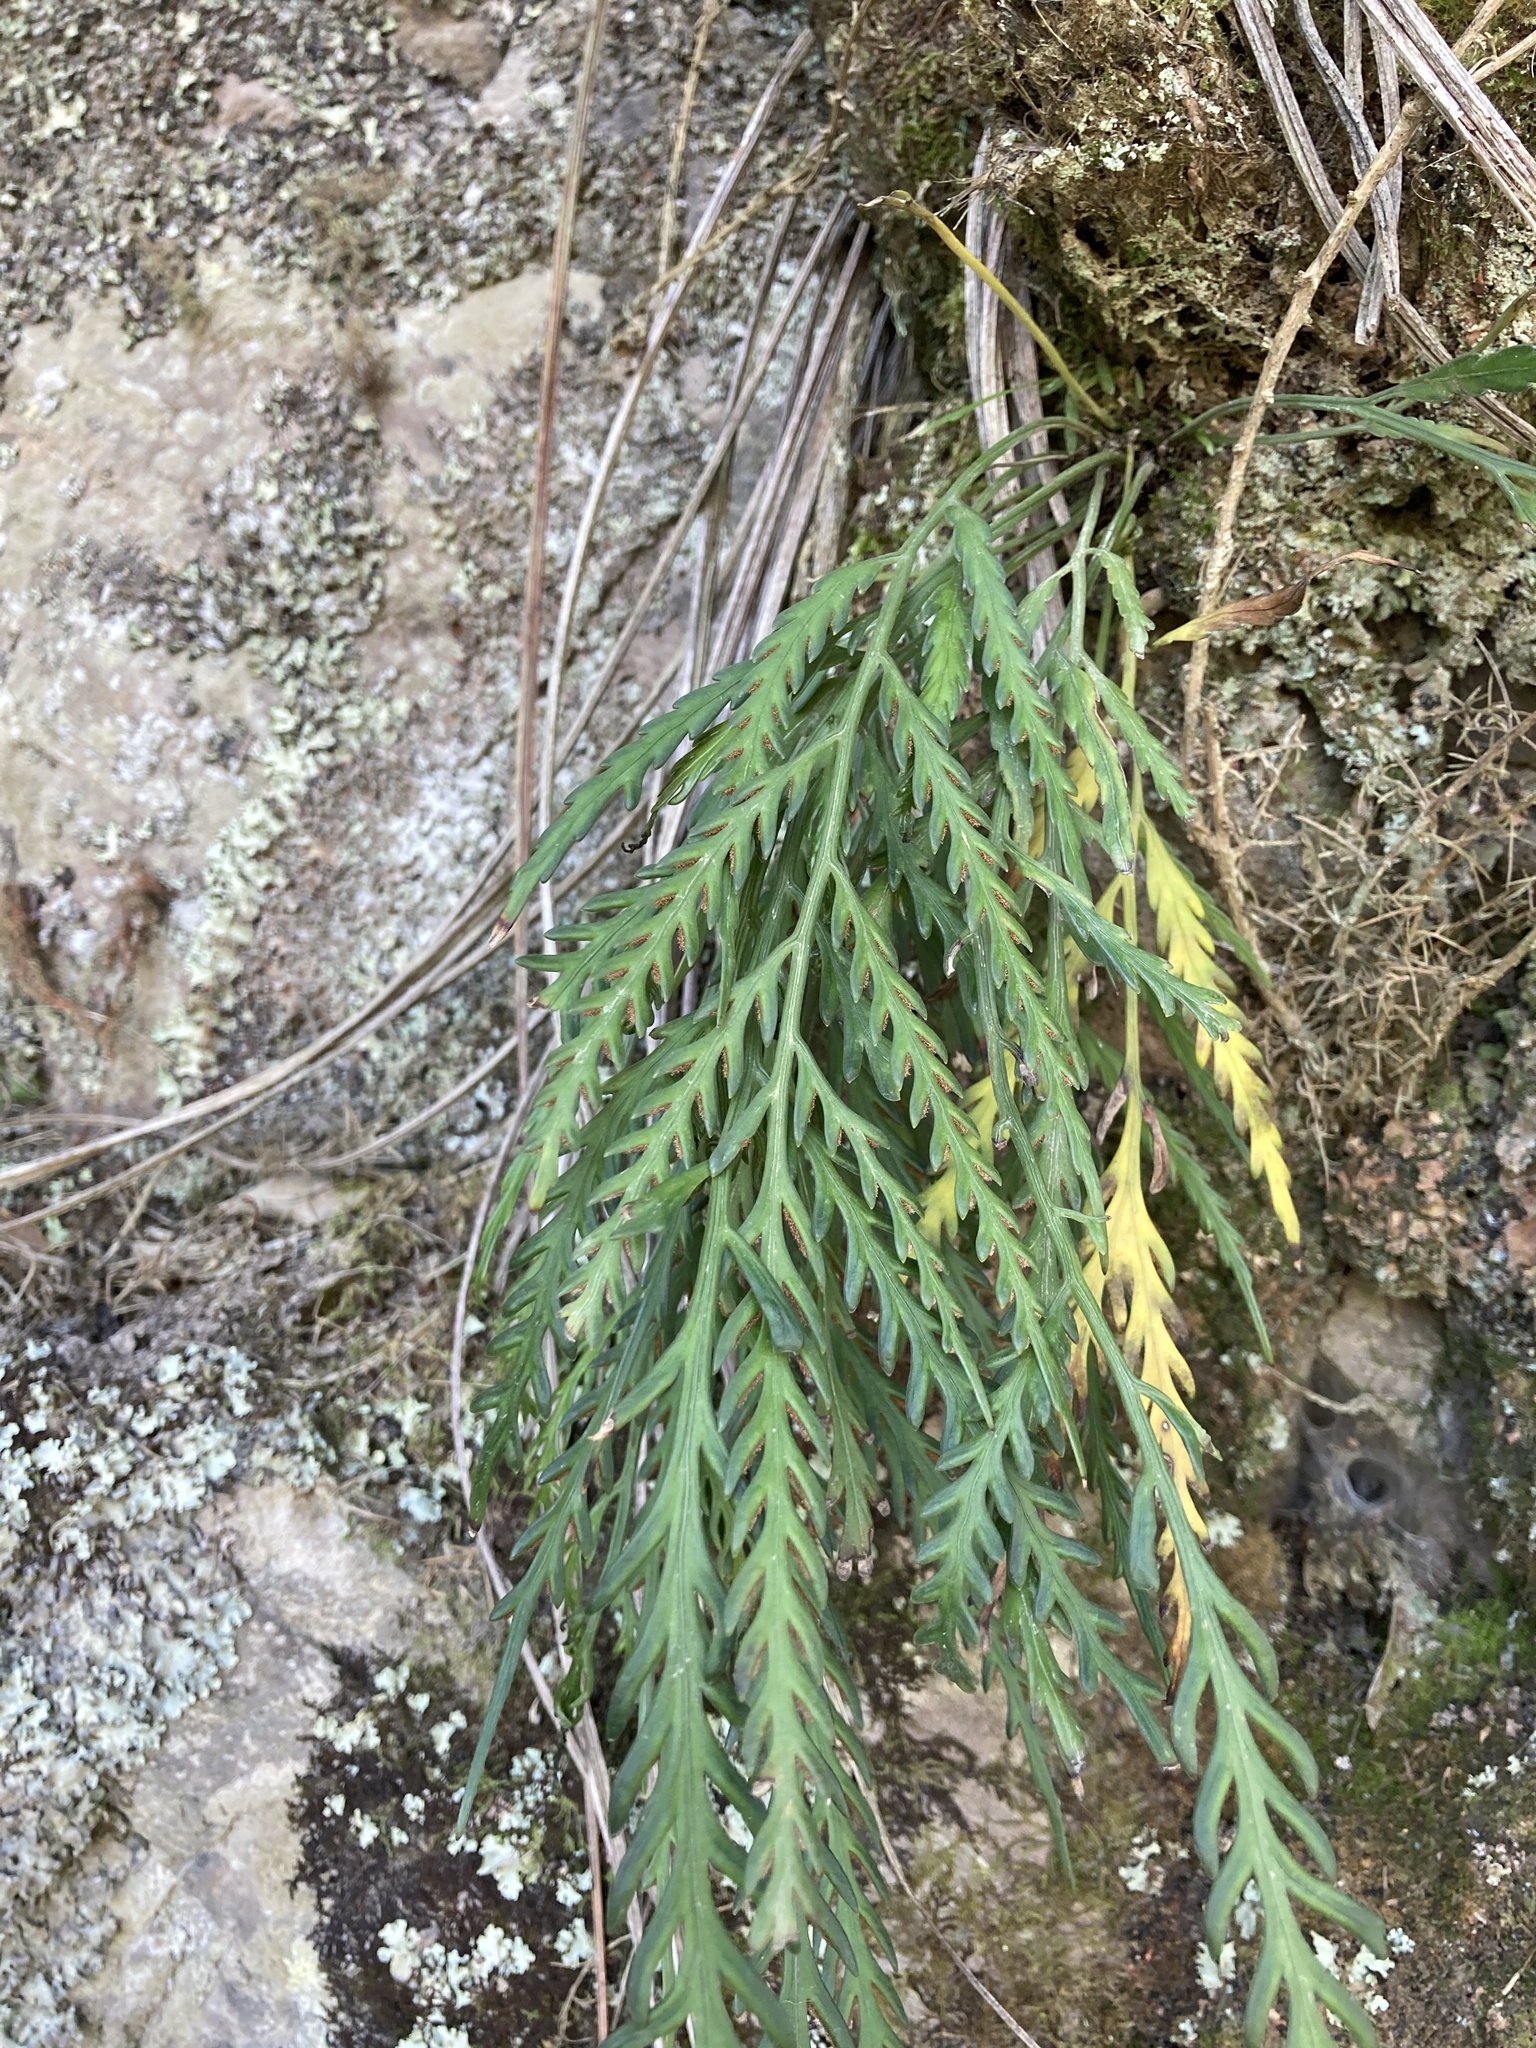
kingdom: Plantae
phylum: Tracheophyta
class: Polypodiopsida
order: Polypodiales
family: Aspleniaceae
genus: Asplenium
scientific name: Asplenium flaccidum
